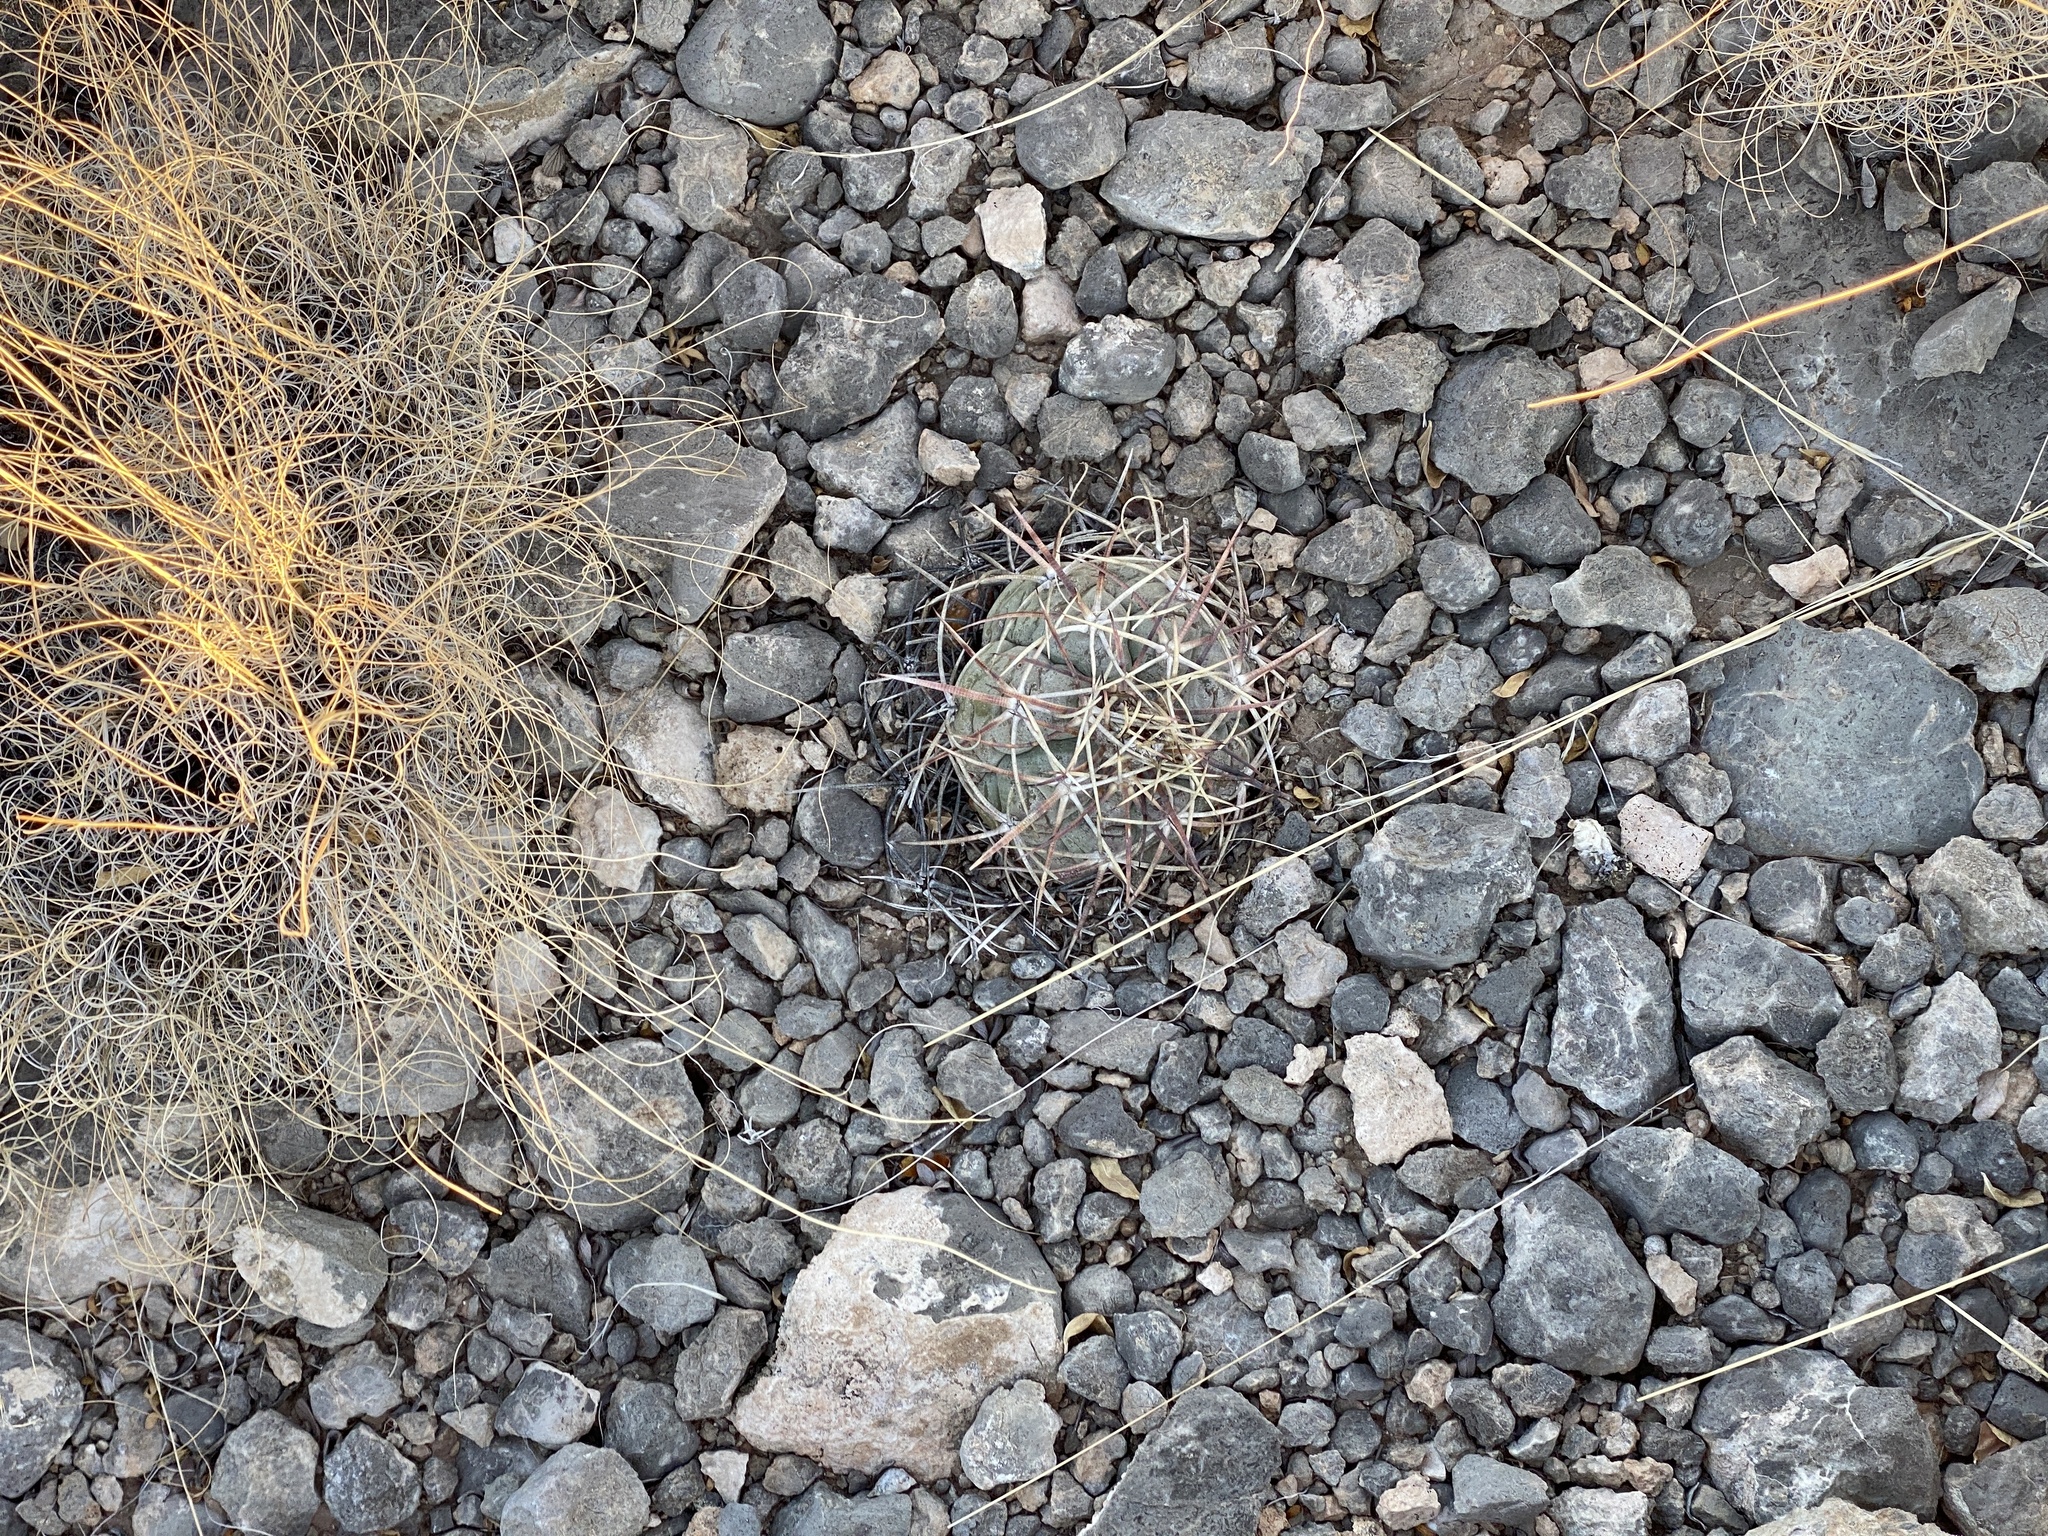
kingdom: Plantae
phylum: Tracheophyta
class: Magnoliopsida
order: Caryophyllales
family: Cactaceae
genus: Echinocactus
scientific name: Echinocactus horizonthalonius
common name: Devilshead
